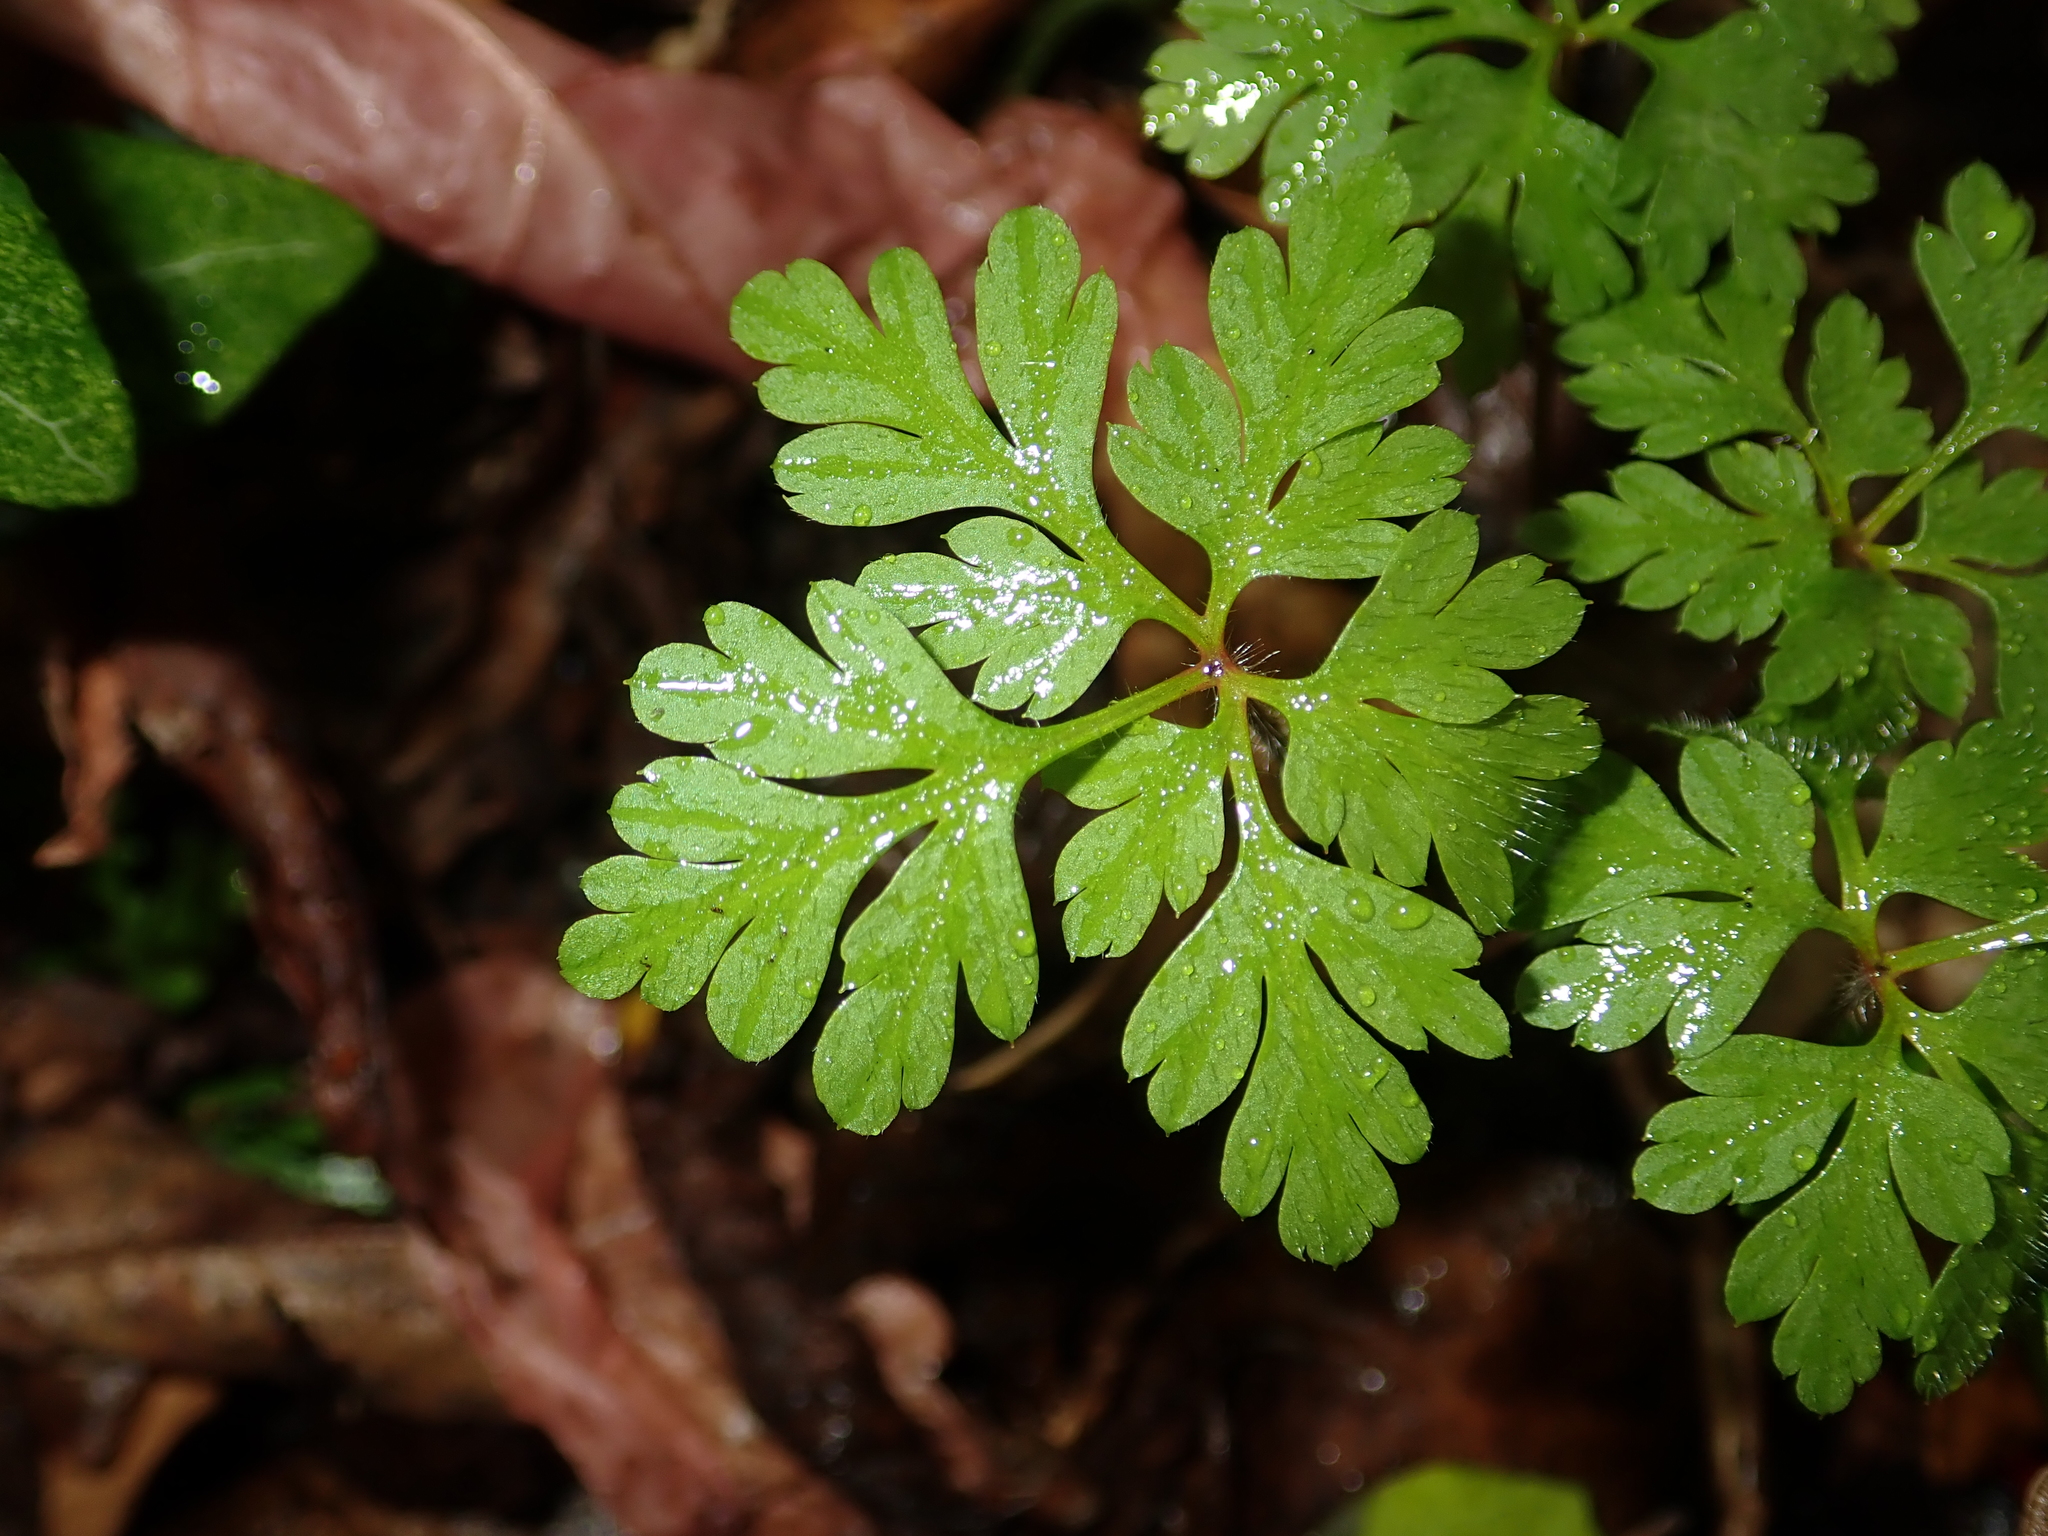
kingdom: Plantae
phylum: Tracheophyta
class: Magnoliopsida
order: Geraniales
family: Geraniaceae
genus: Geranium
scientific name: Geranium robertianum
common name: Herb-robert
